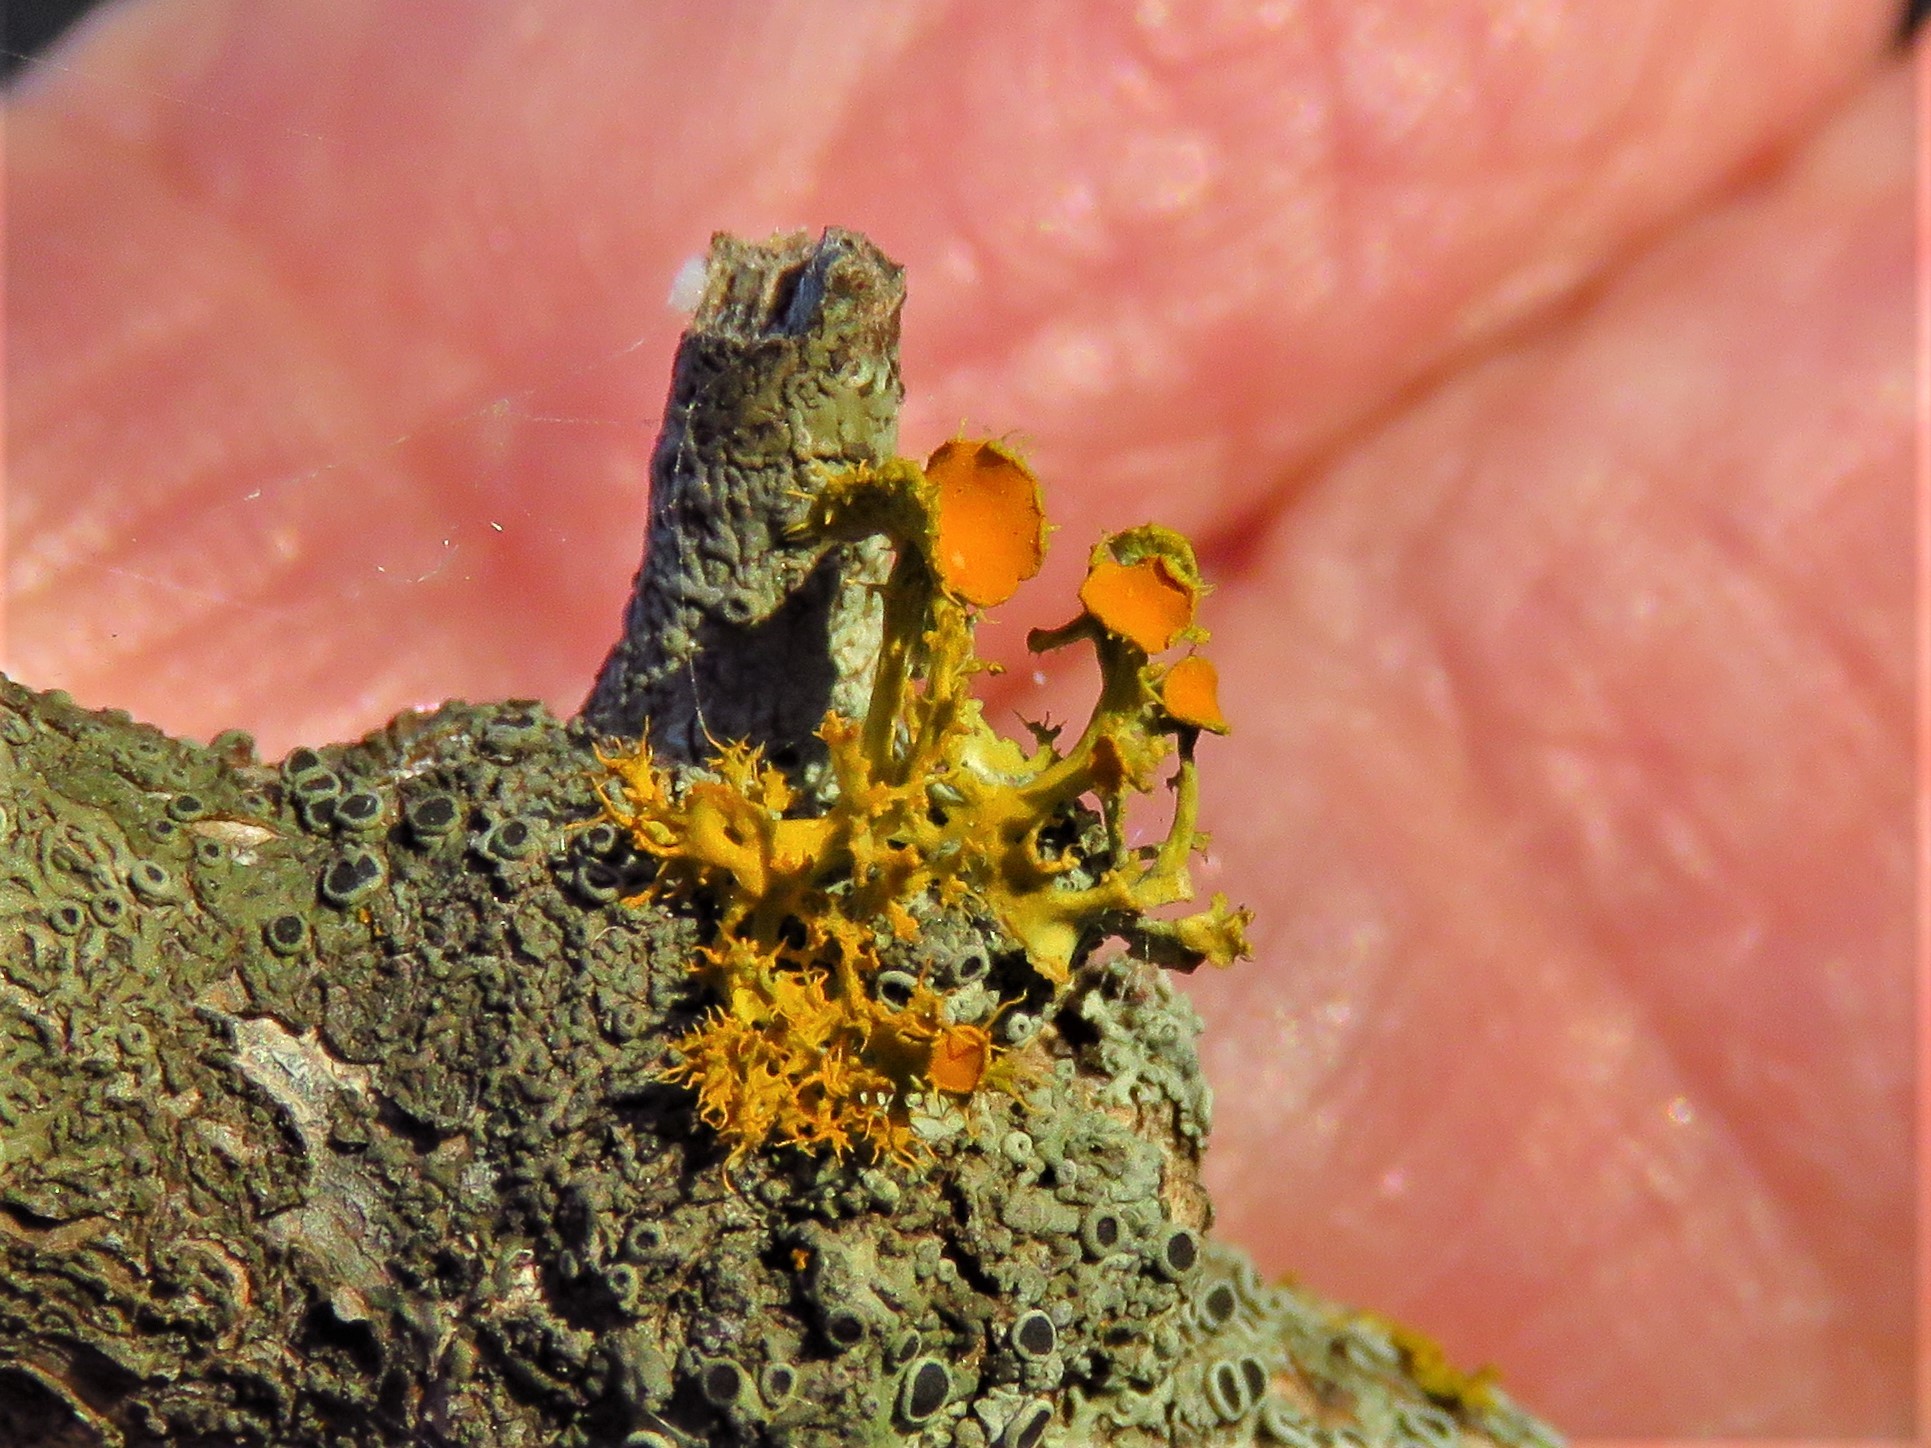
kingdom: Fungi
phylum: Ascomycota
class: Lecanoromycetes
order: Teloschistales
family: Teloschistaceae
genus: Niorma
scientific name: Niorma chrysophthalma
